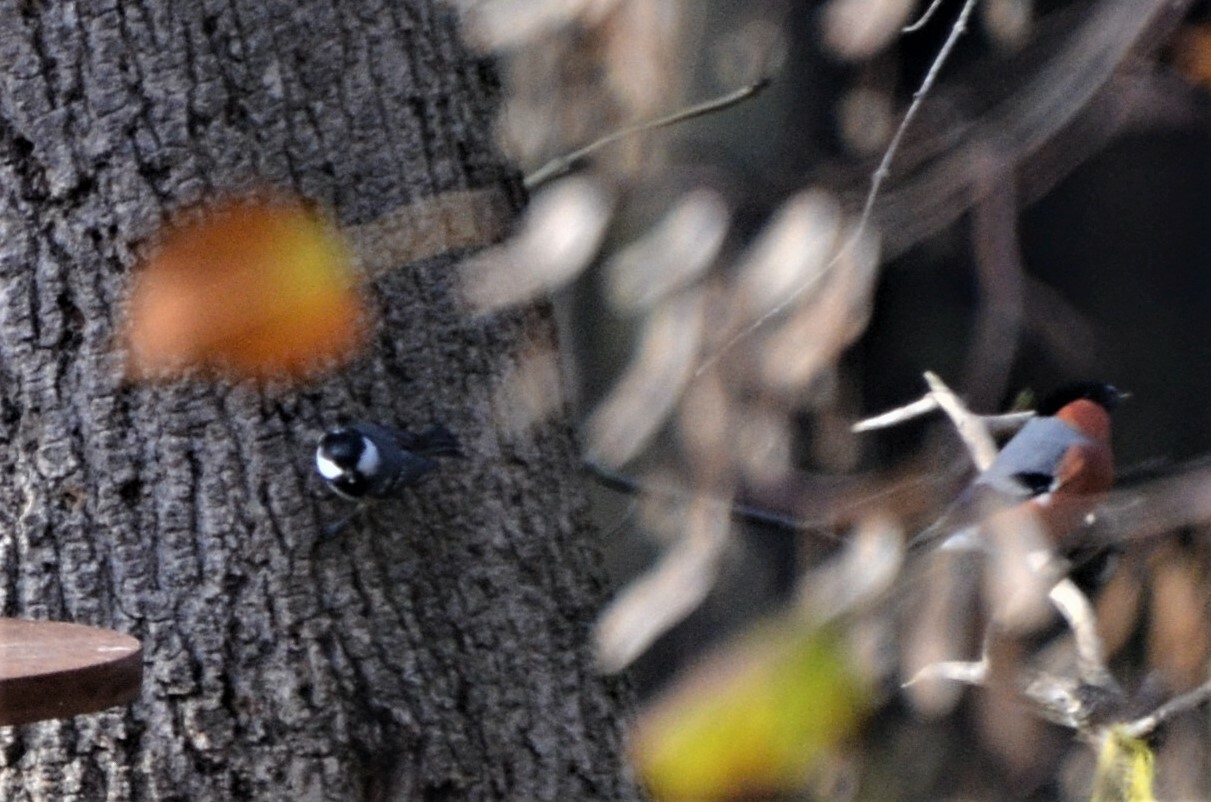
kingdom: Animalia
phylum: Chordata
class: Aves
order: Passeriformes
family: Paridae
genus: Periparus
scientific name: Periparus ater
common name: Coal tit
